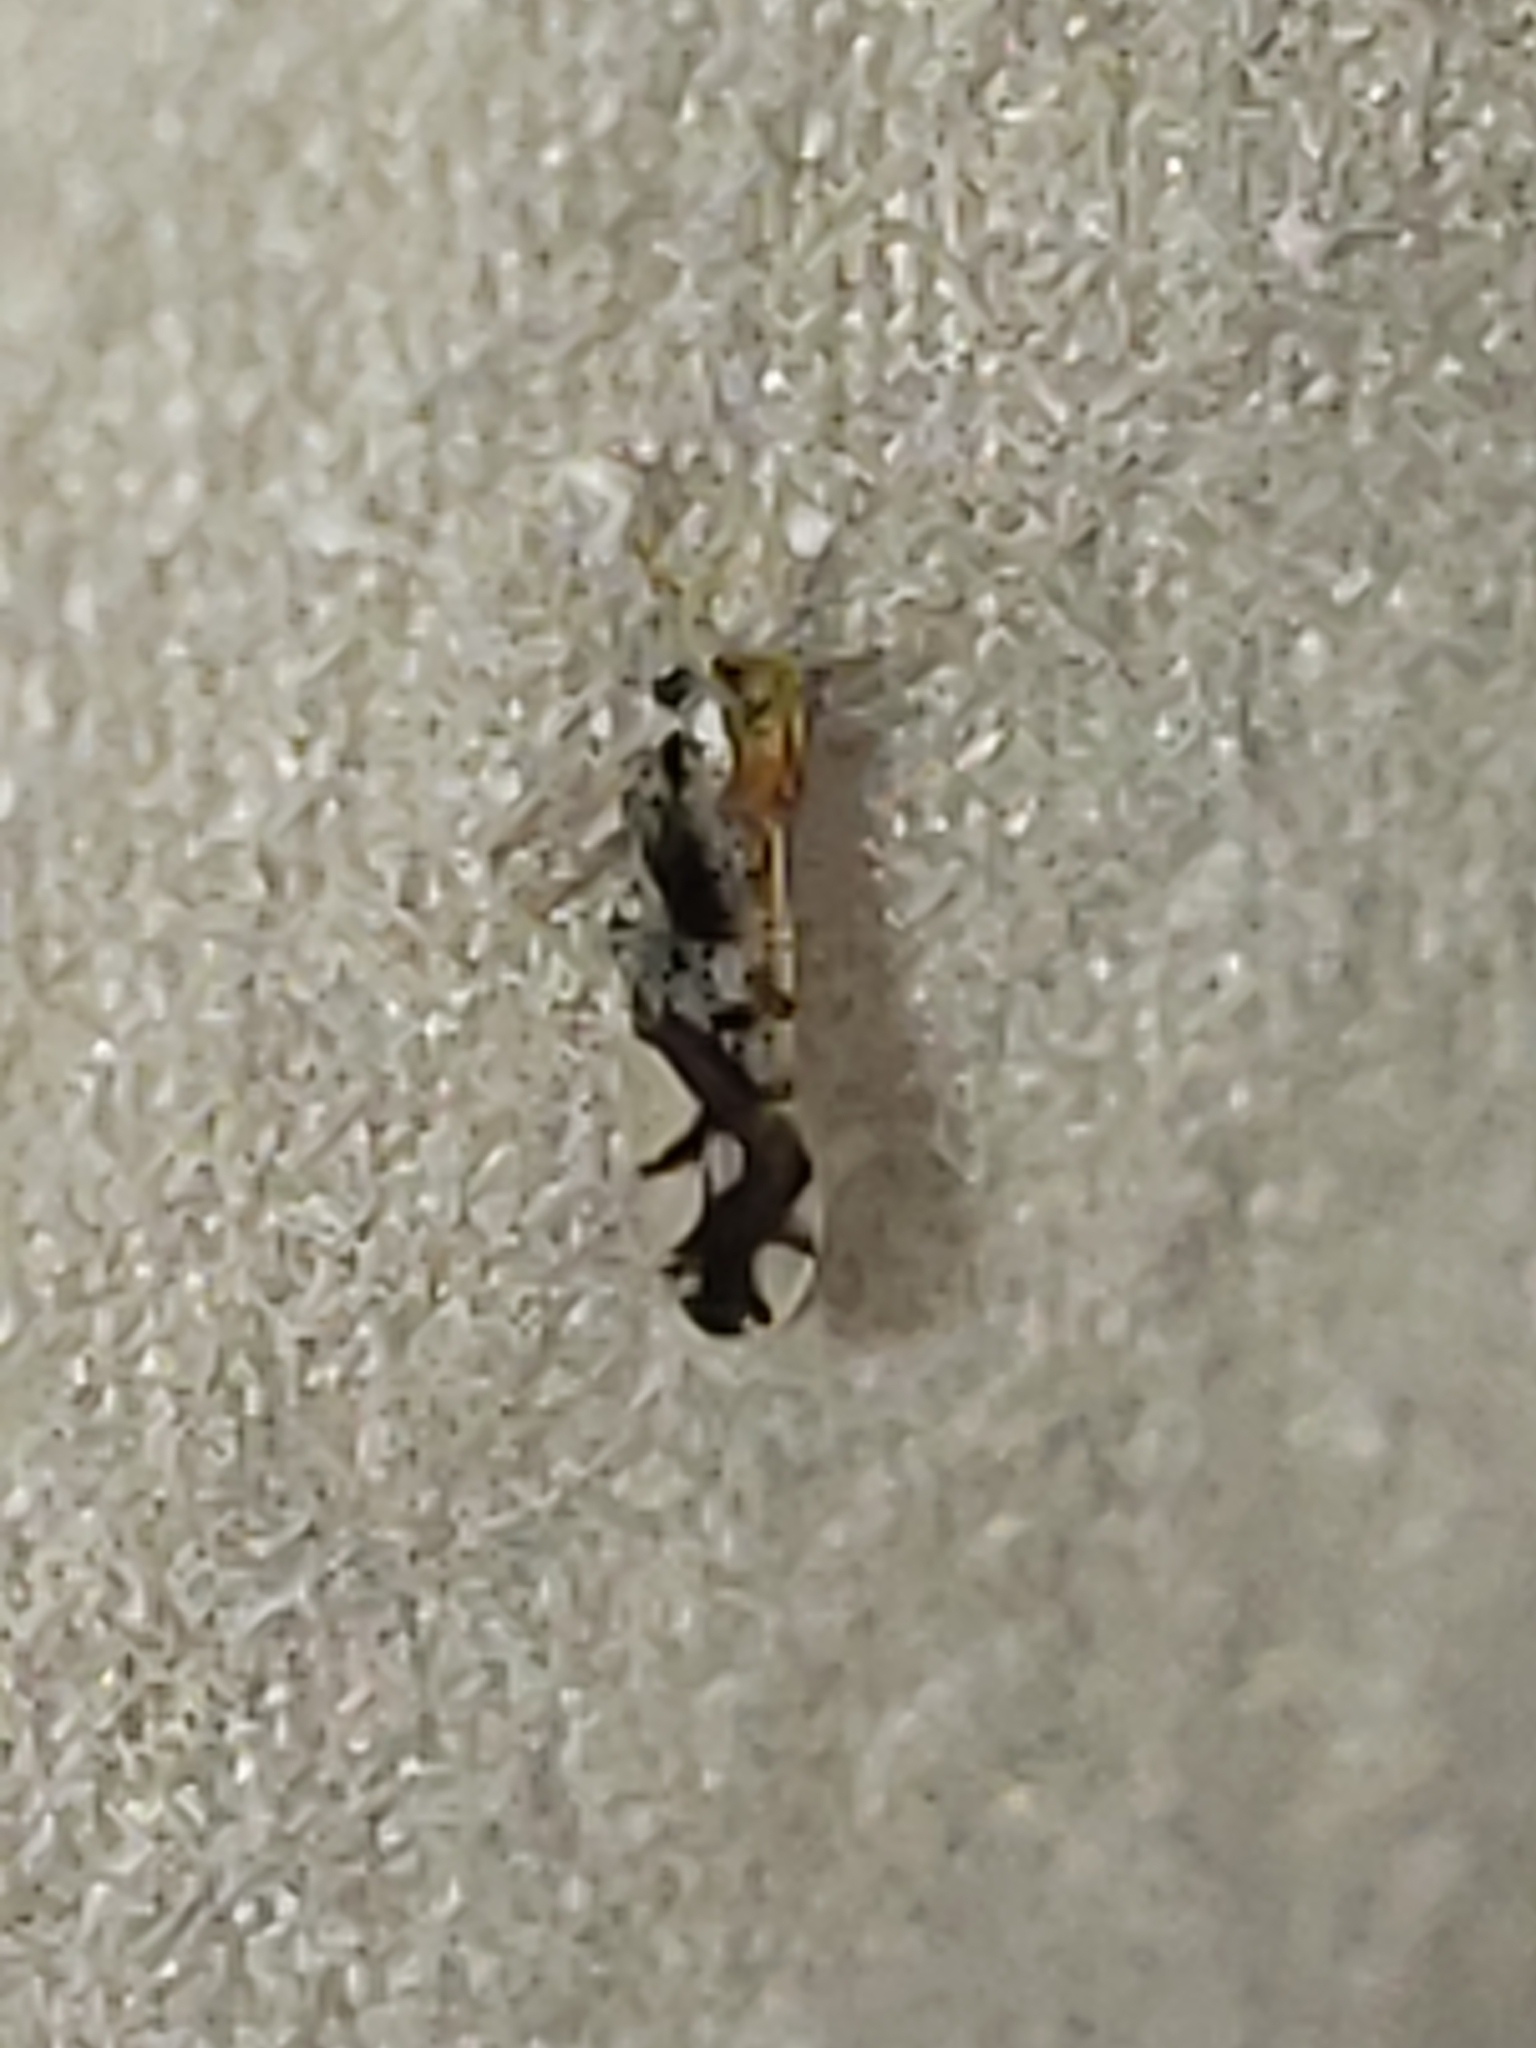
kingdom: Animalia
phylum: Arthropoda
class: Insecta
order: Hemiptera
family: Delphacidae
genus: Liburniella
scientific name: Liburniella ornata
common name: Ornate planthopper
